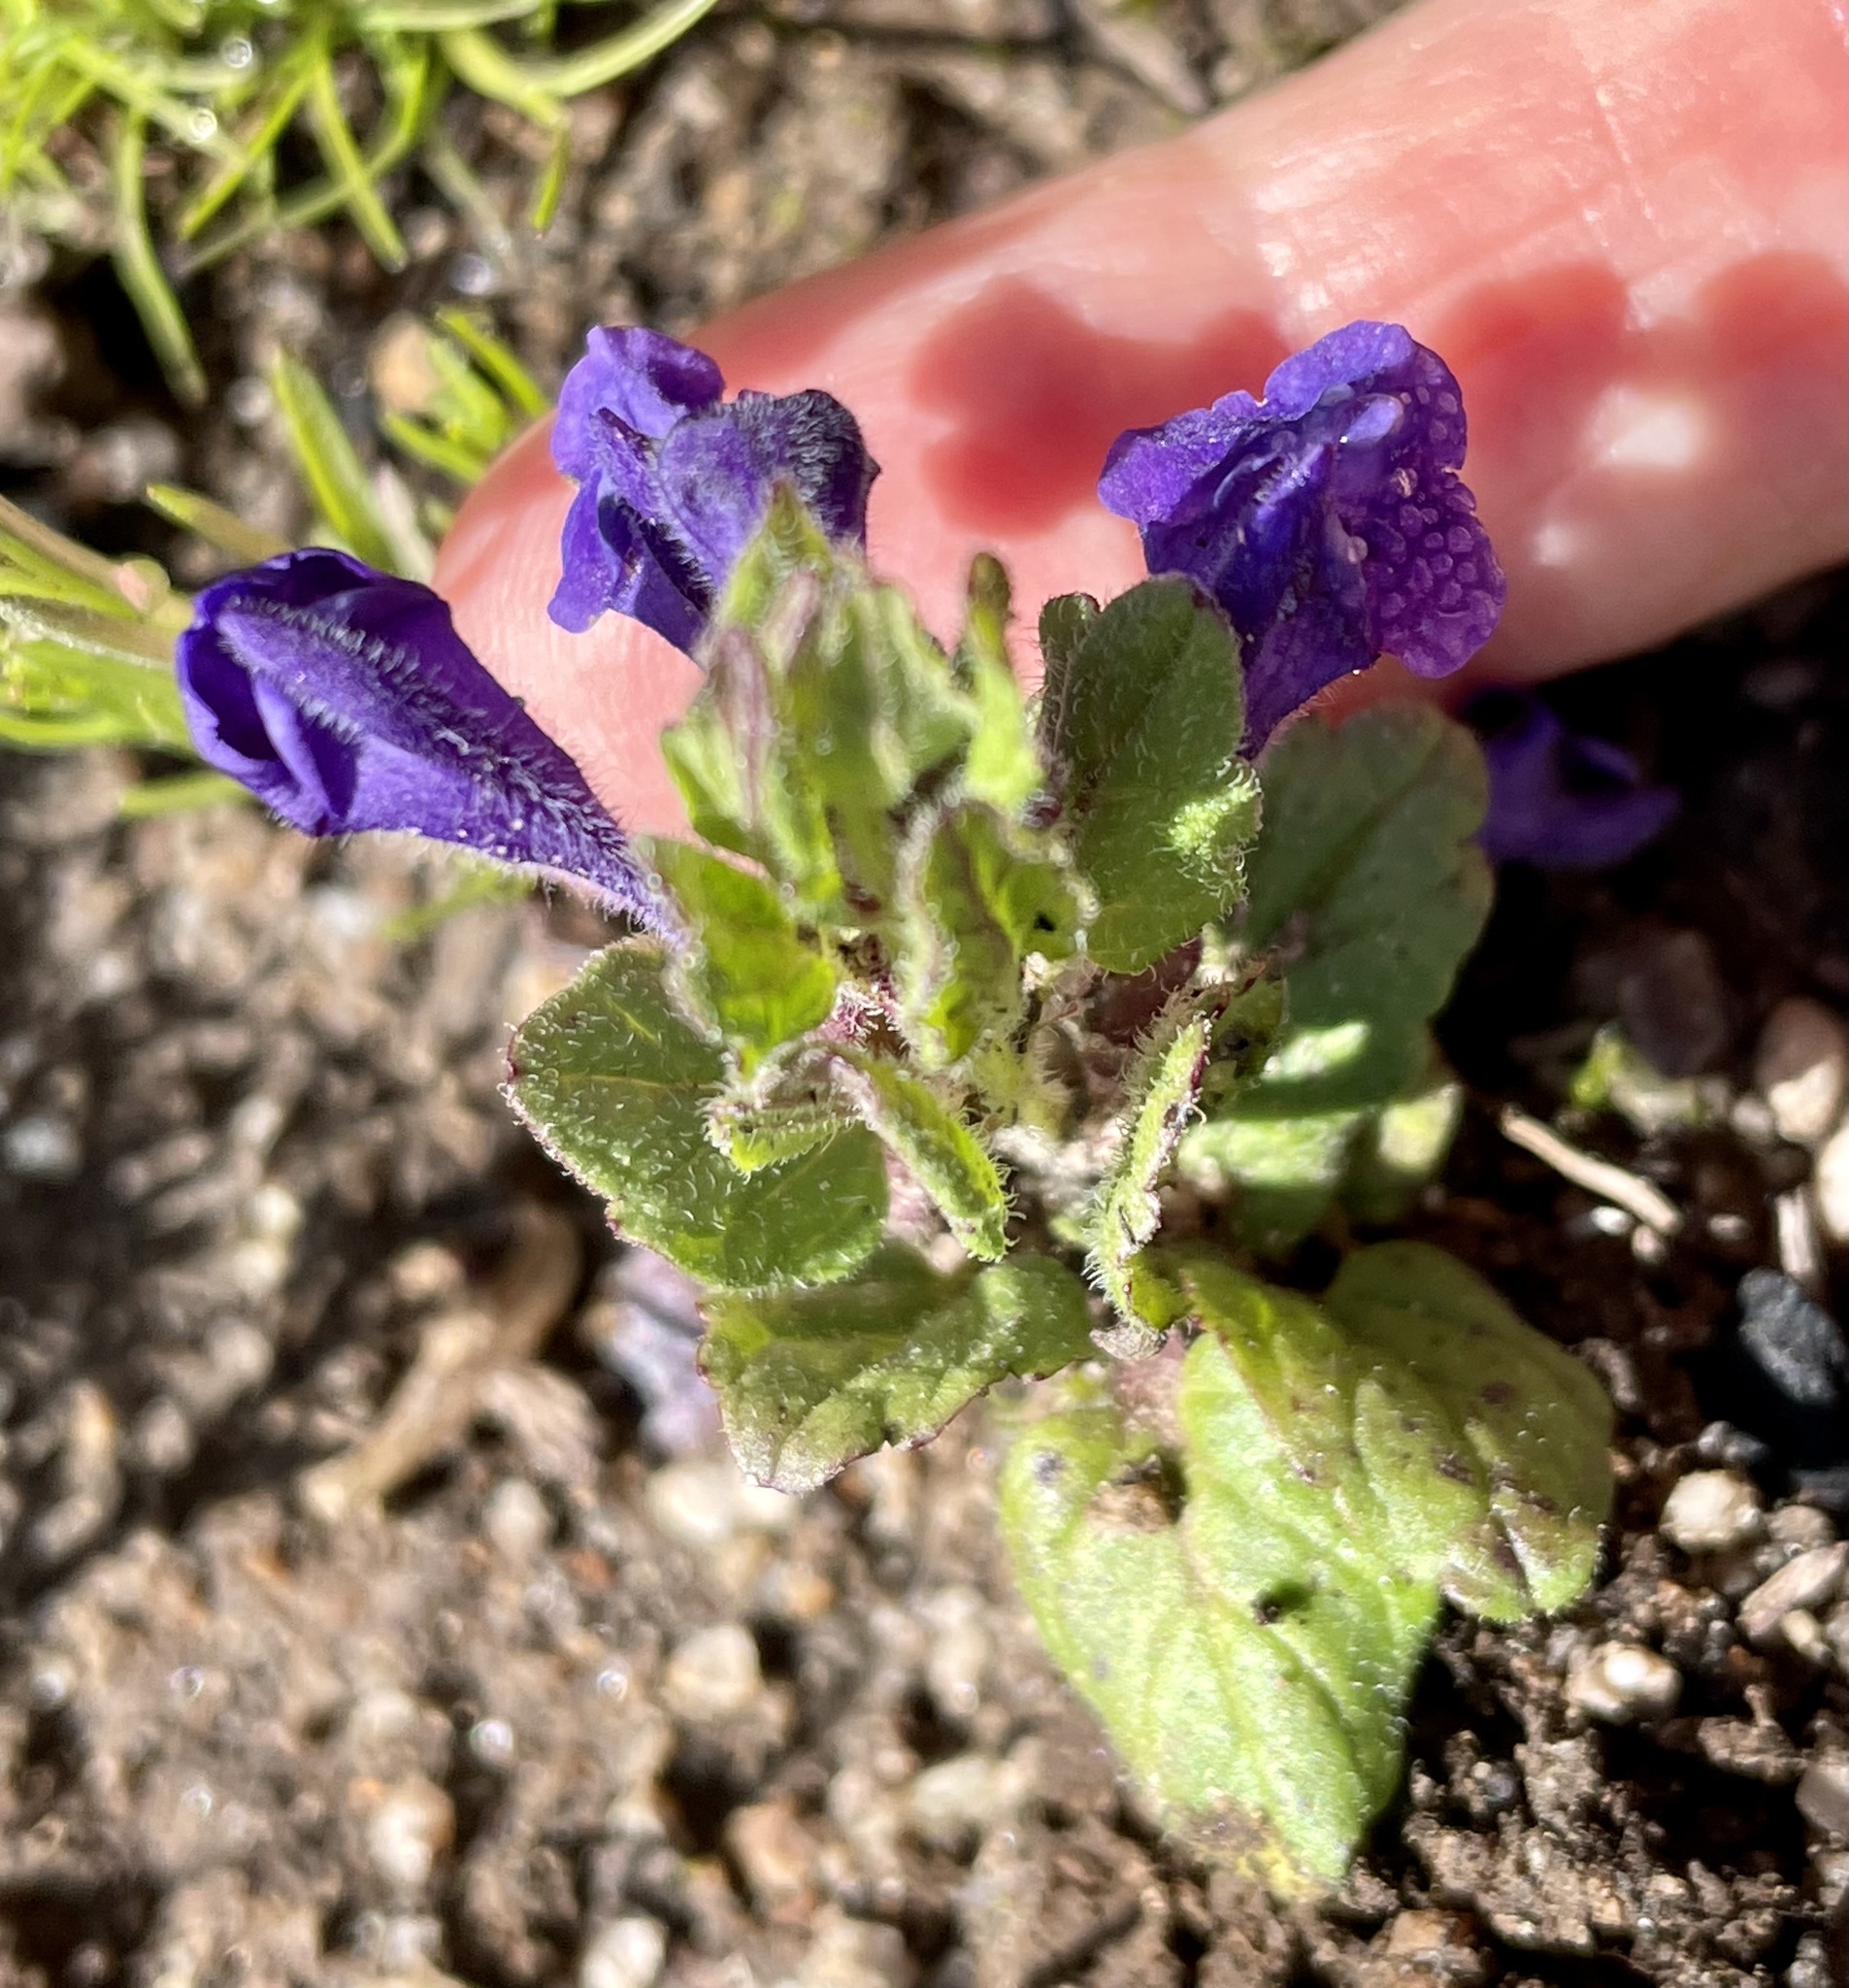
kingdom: Plantae
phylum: Tracheophyta
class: Magnoliopsida
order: Lamiales
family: Lamiaceae
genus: Scutellaria
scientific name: Scutellaria tuberosa
